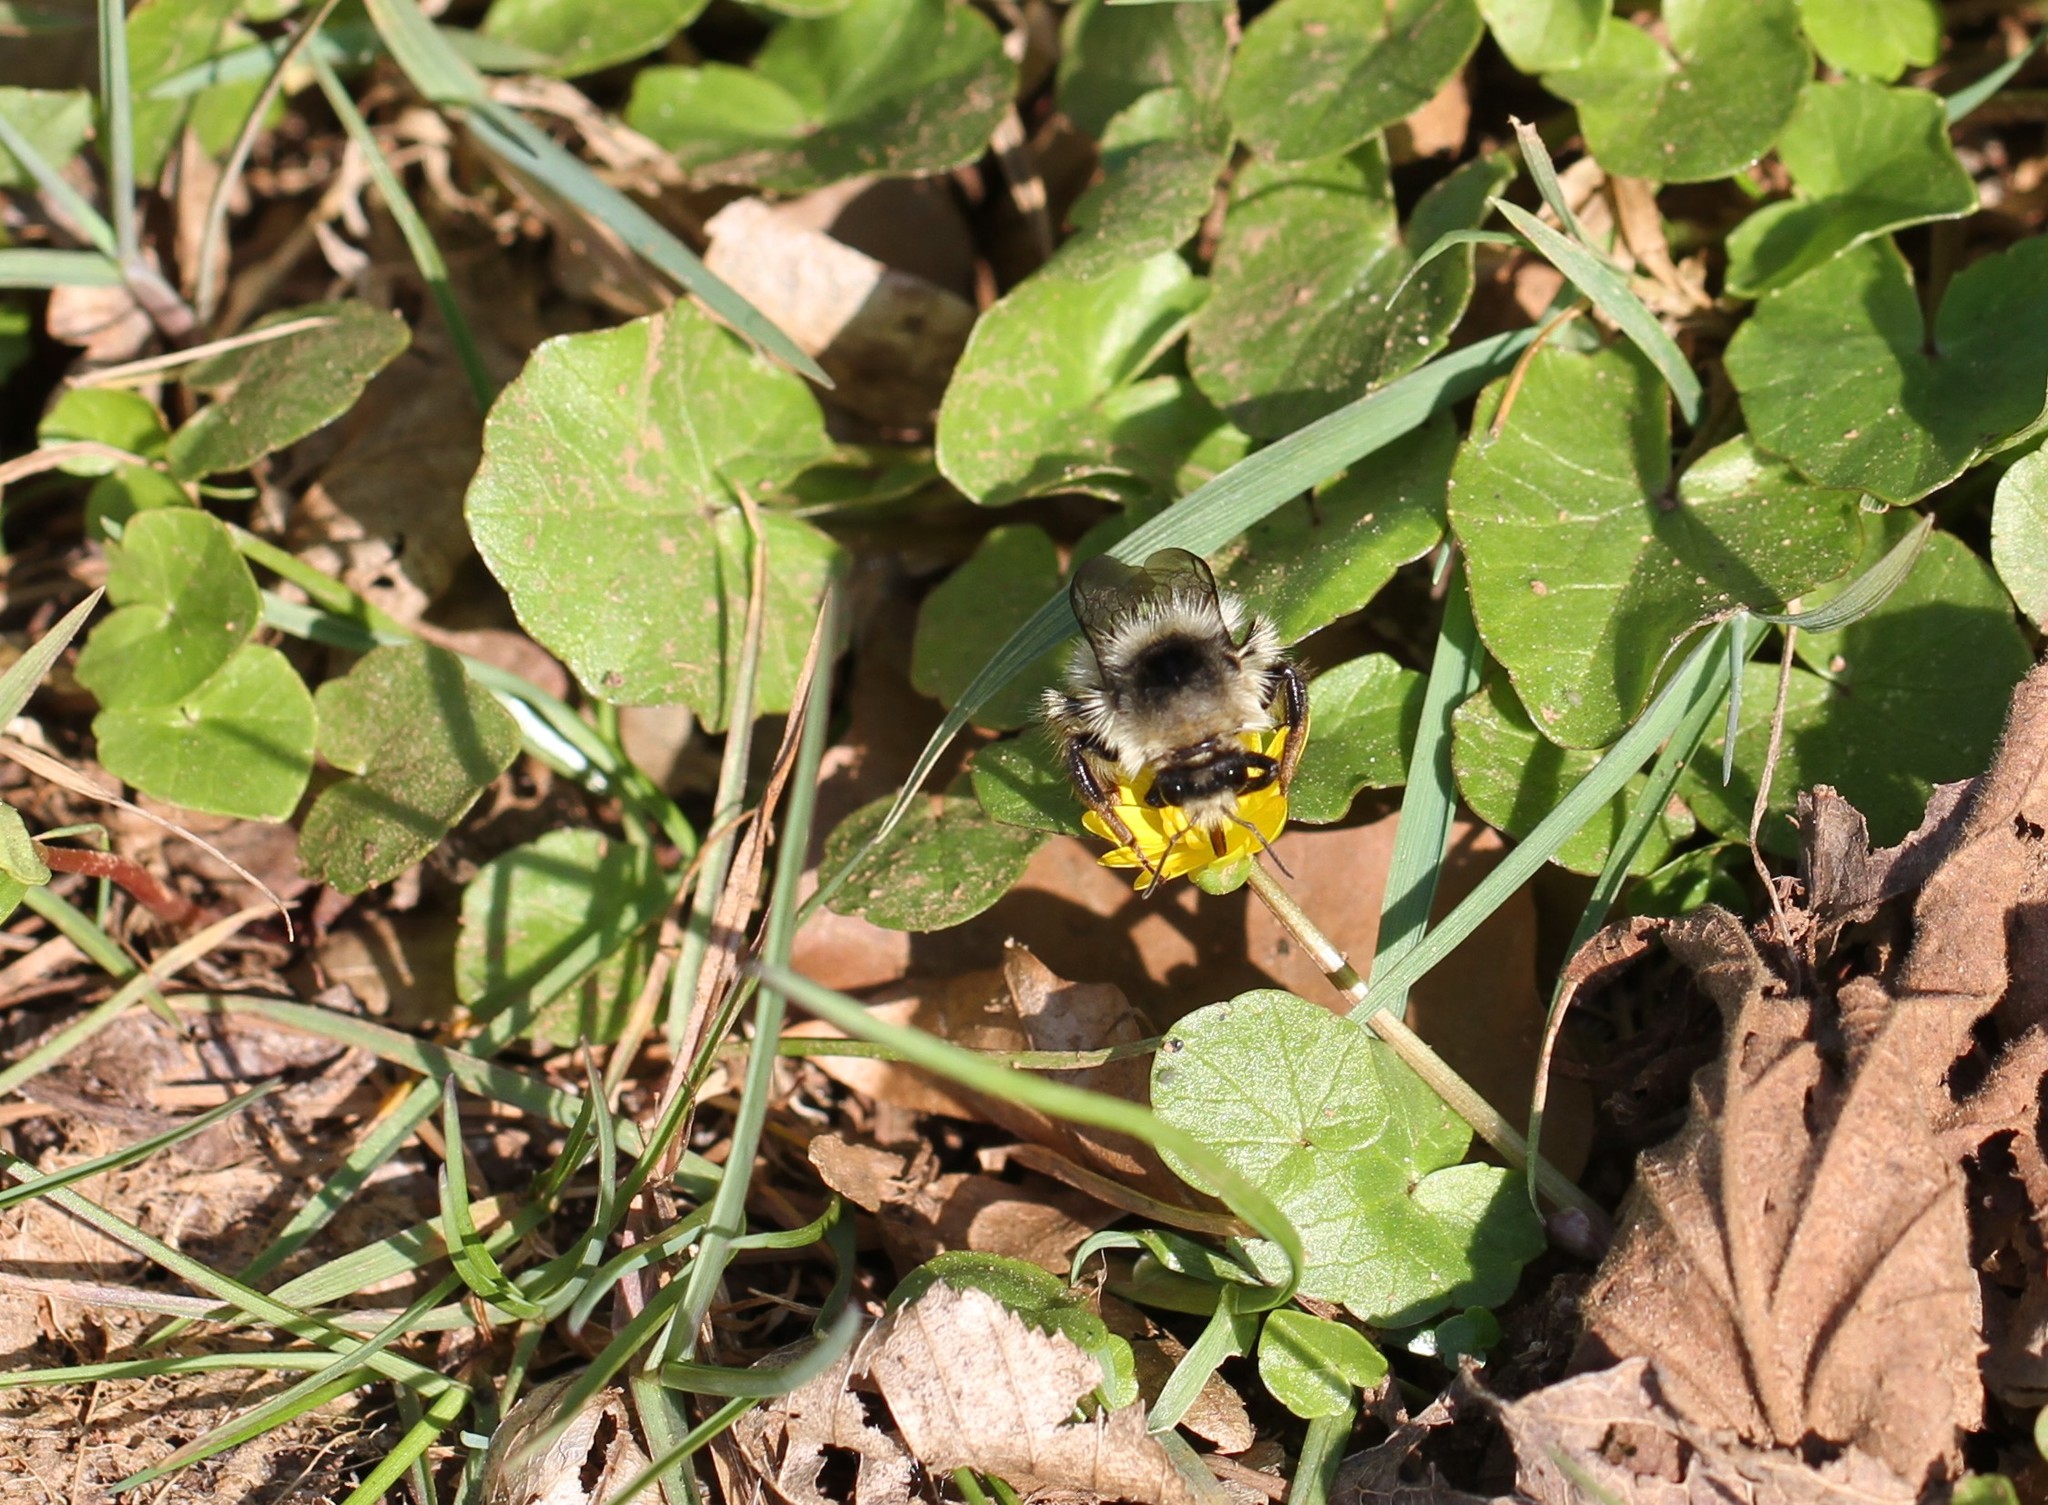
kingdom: Animalia
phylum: Arthropoda
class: Insecta
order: Hymenoptera
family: Apidae
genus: Bombus
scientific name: Bombus sylvarum
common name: Shrill carder bee
